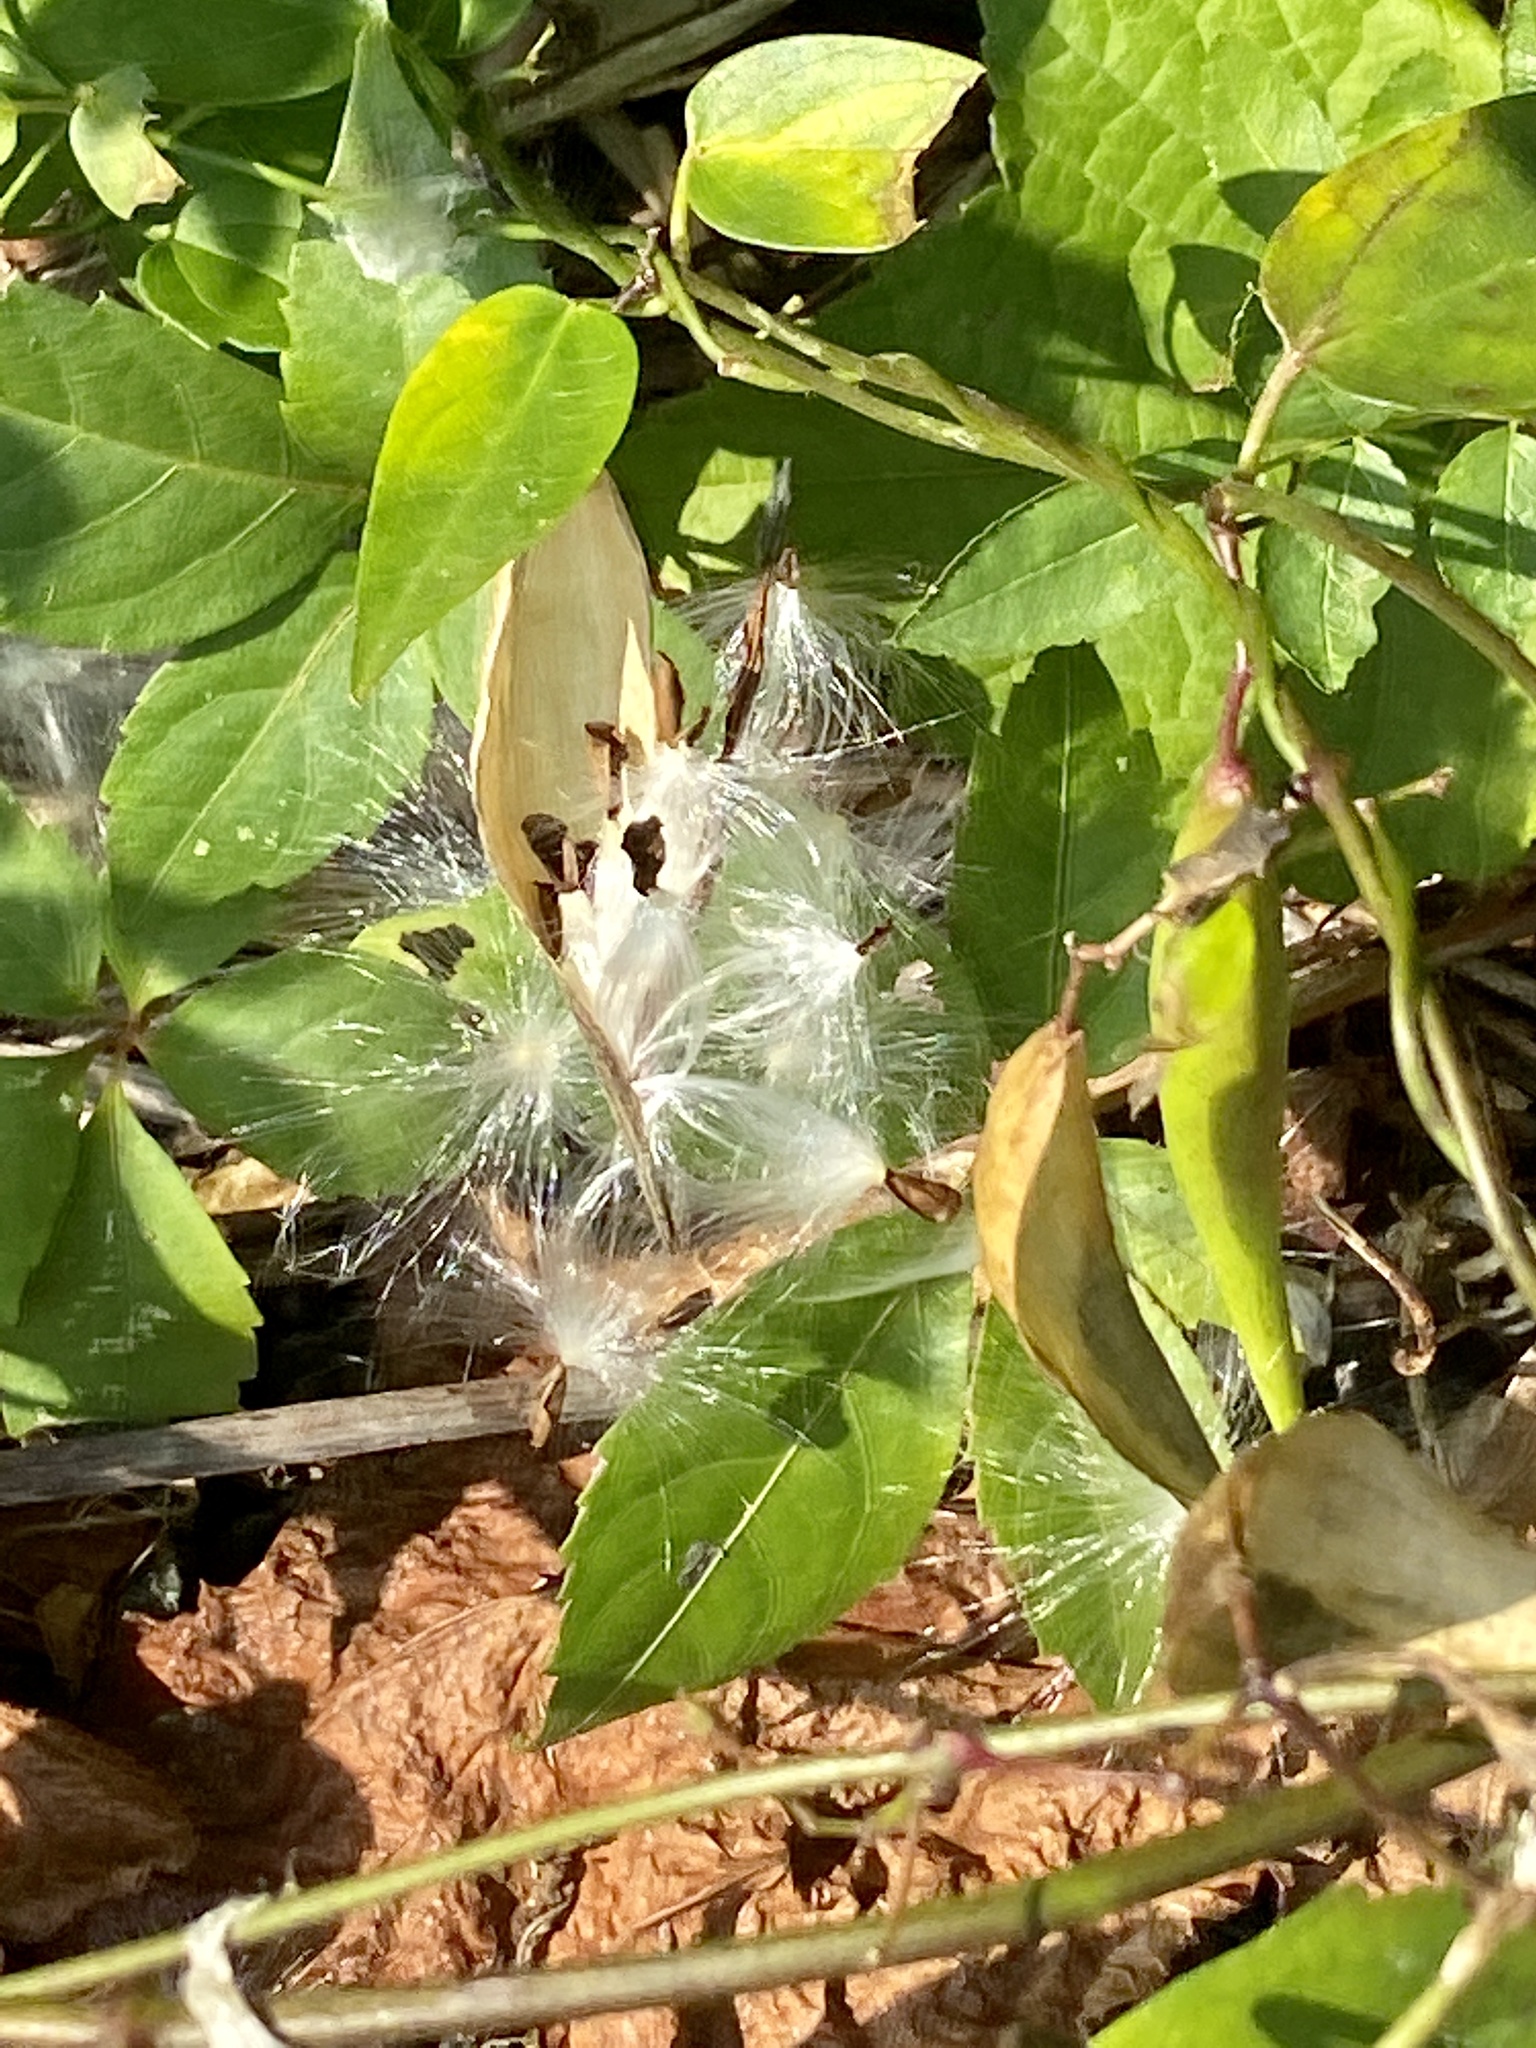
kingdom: Plantae
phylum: Tracheophyta
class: Magnoliopsida
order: Gentianales
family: Apocynaceae
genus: Vincetoxicum
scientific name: Vincetoxicum nigrum
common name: Black swallow-wort
